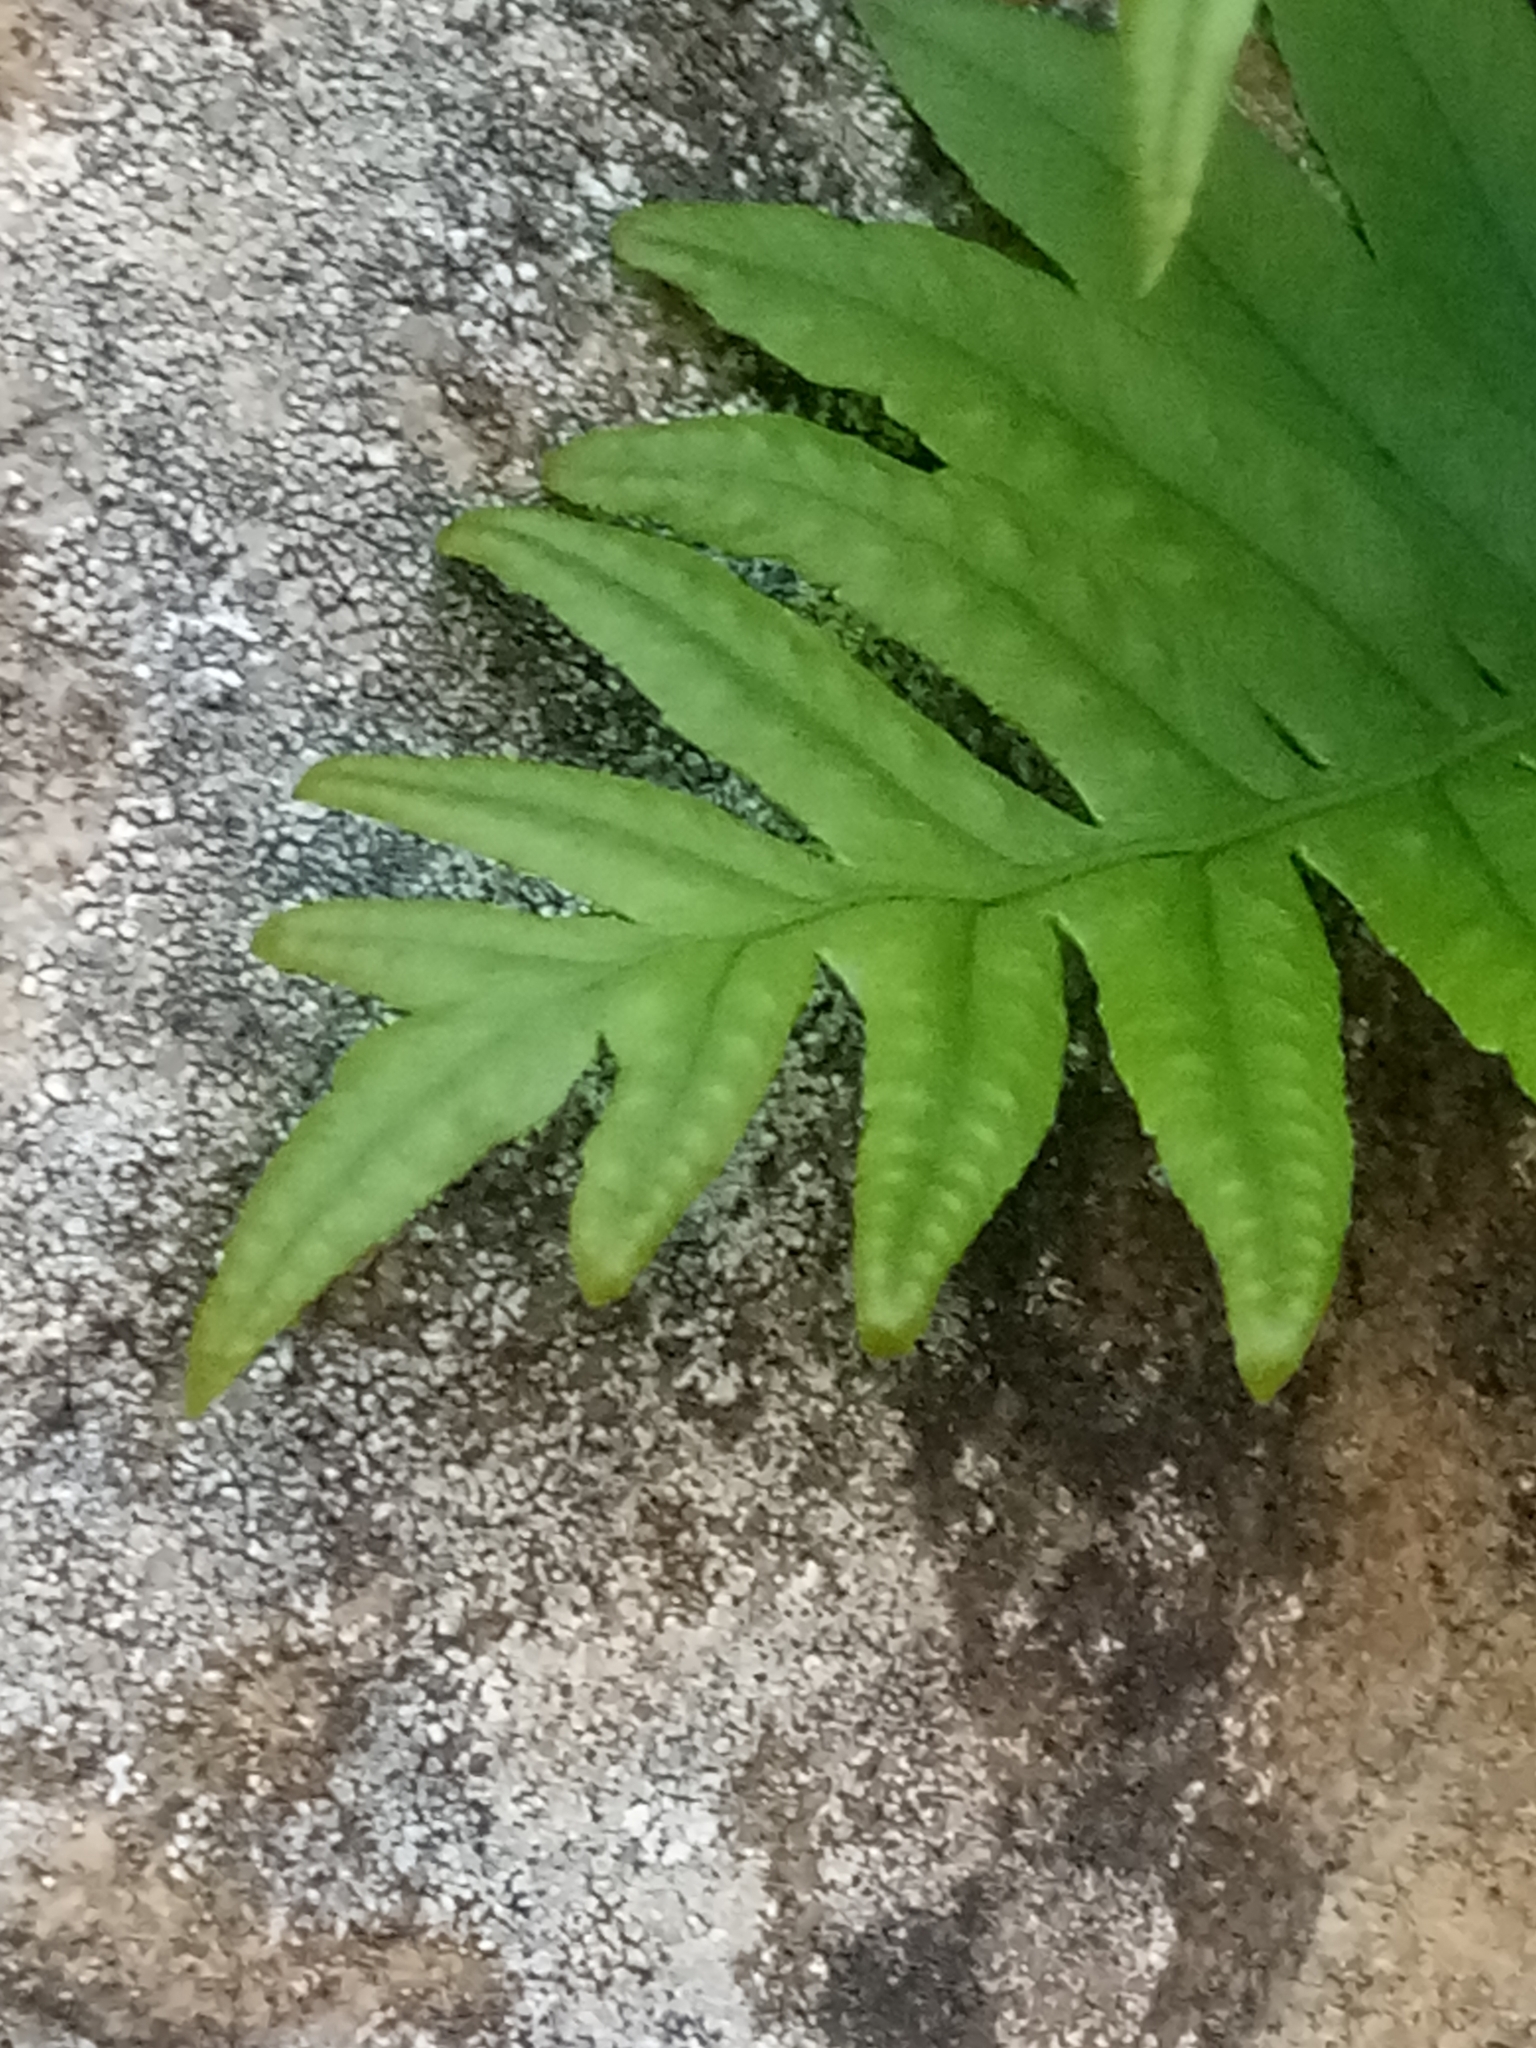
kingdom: Plantae
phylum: Tracheophyta
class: Polypodiopsida
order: Polypodiales
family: Polypodiaceae
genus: Polypodium
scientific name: Polypodium cambricum
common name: Southern polypody
